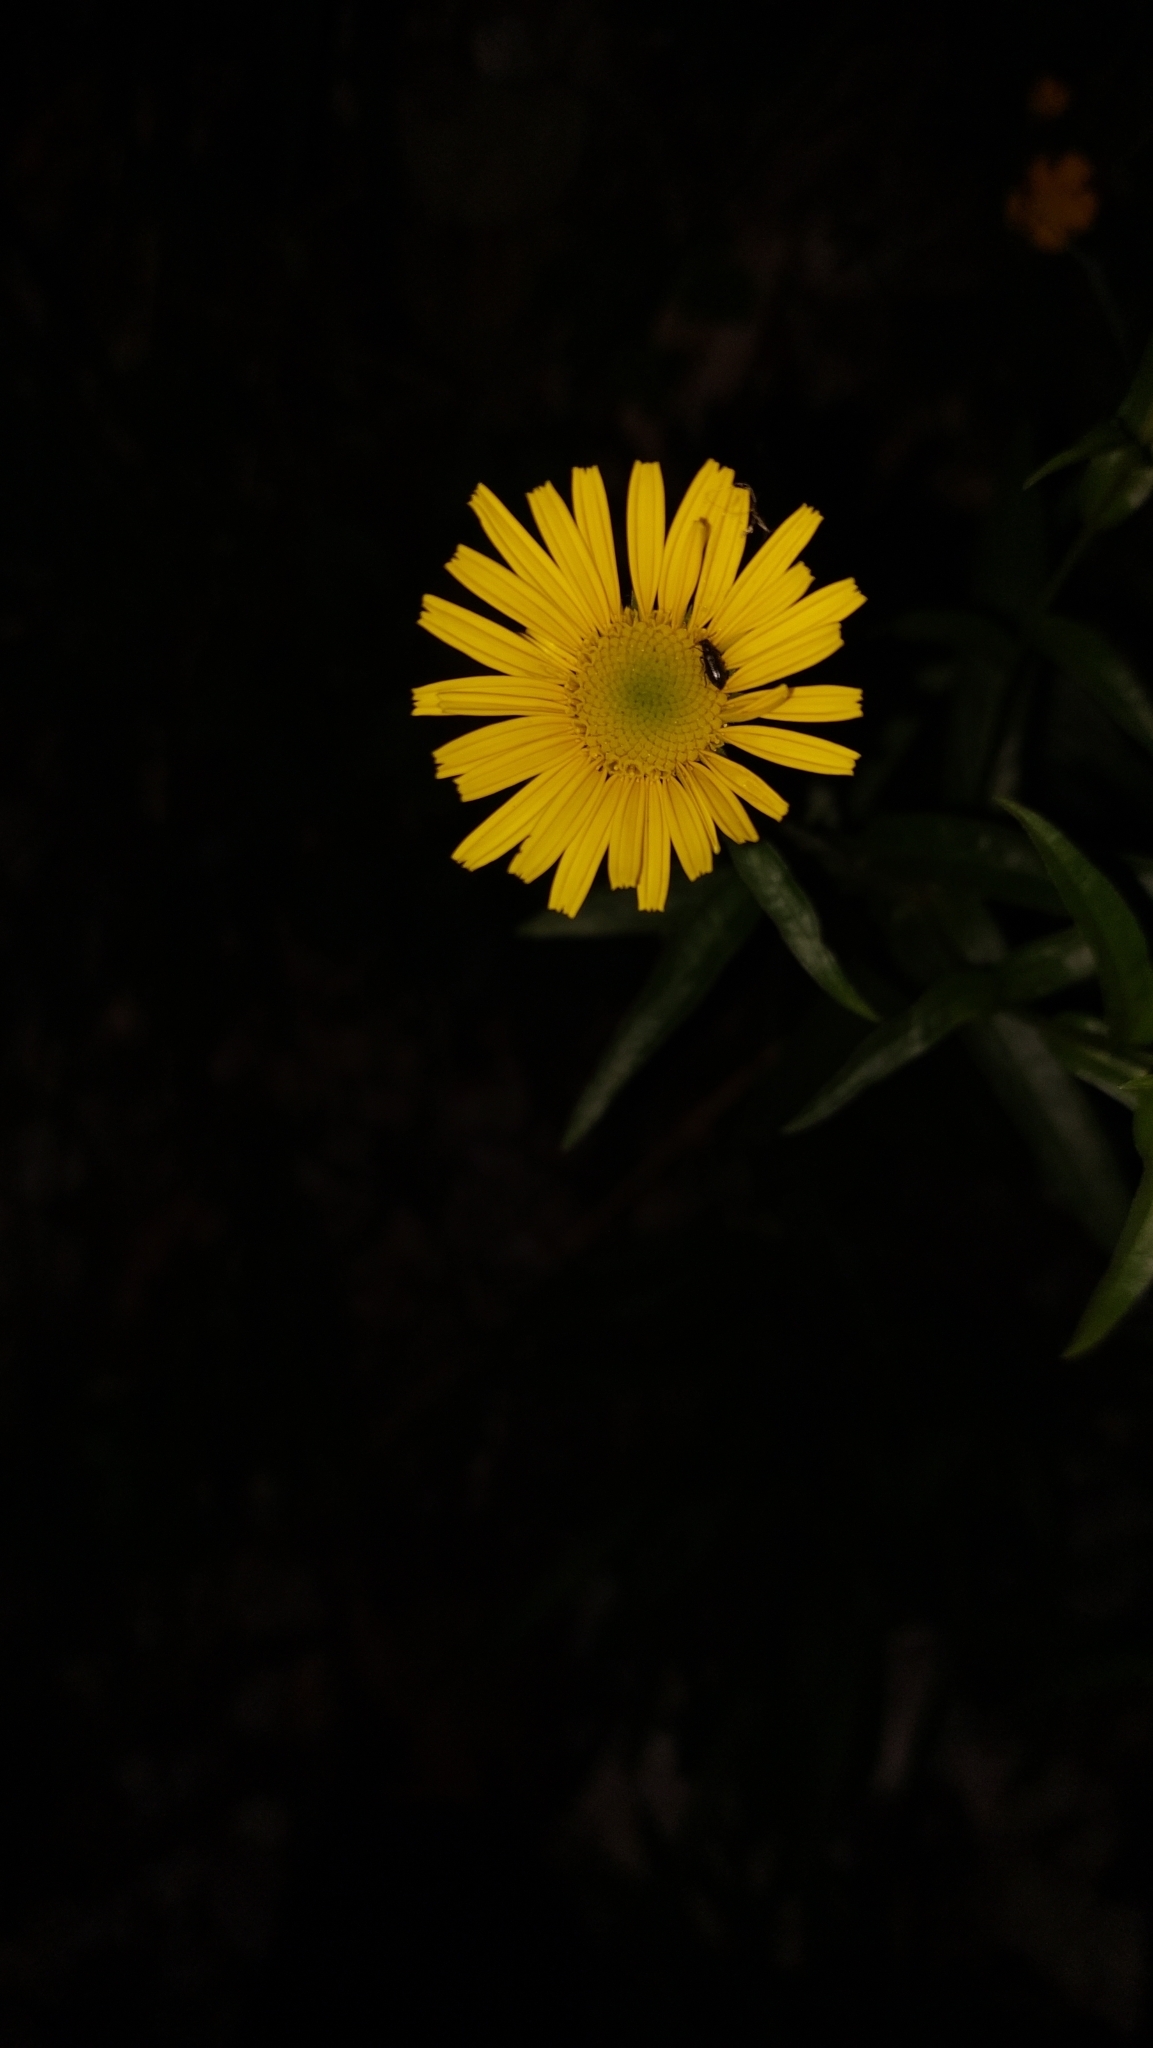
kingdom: Plantae
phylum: Tracheophyta
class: Magnoliopsida
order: Asterales
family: Asteraceae
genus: Buphthalmum
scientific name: Buphthalmum salicifolium
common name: Willow-leaved yellow-oxeye
